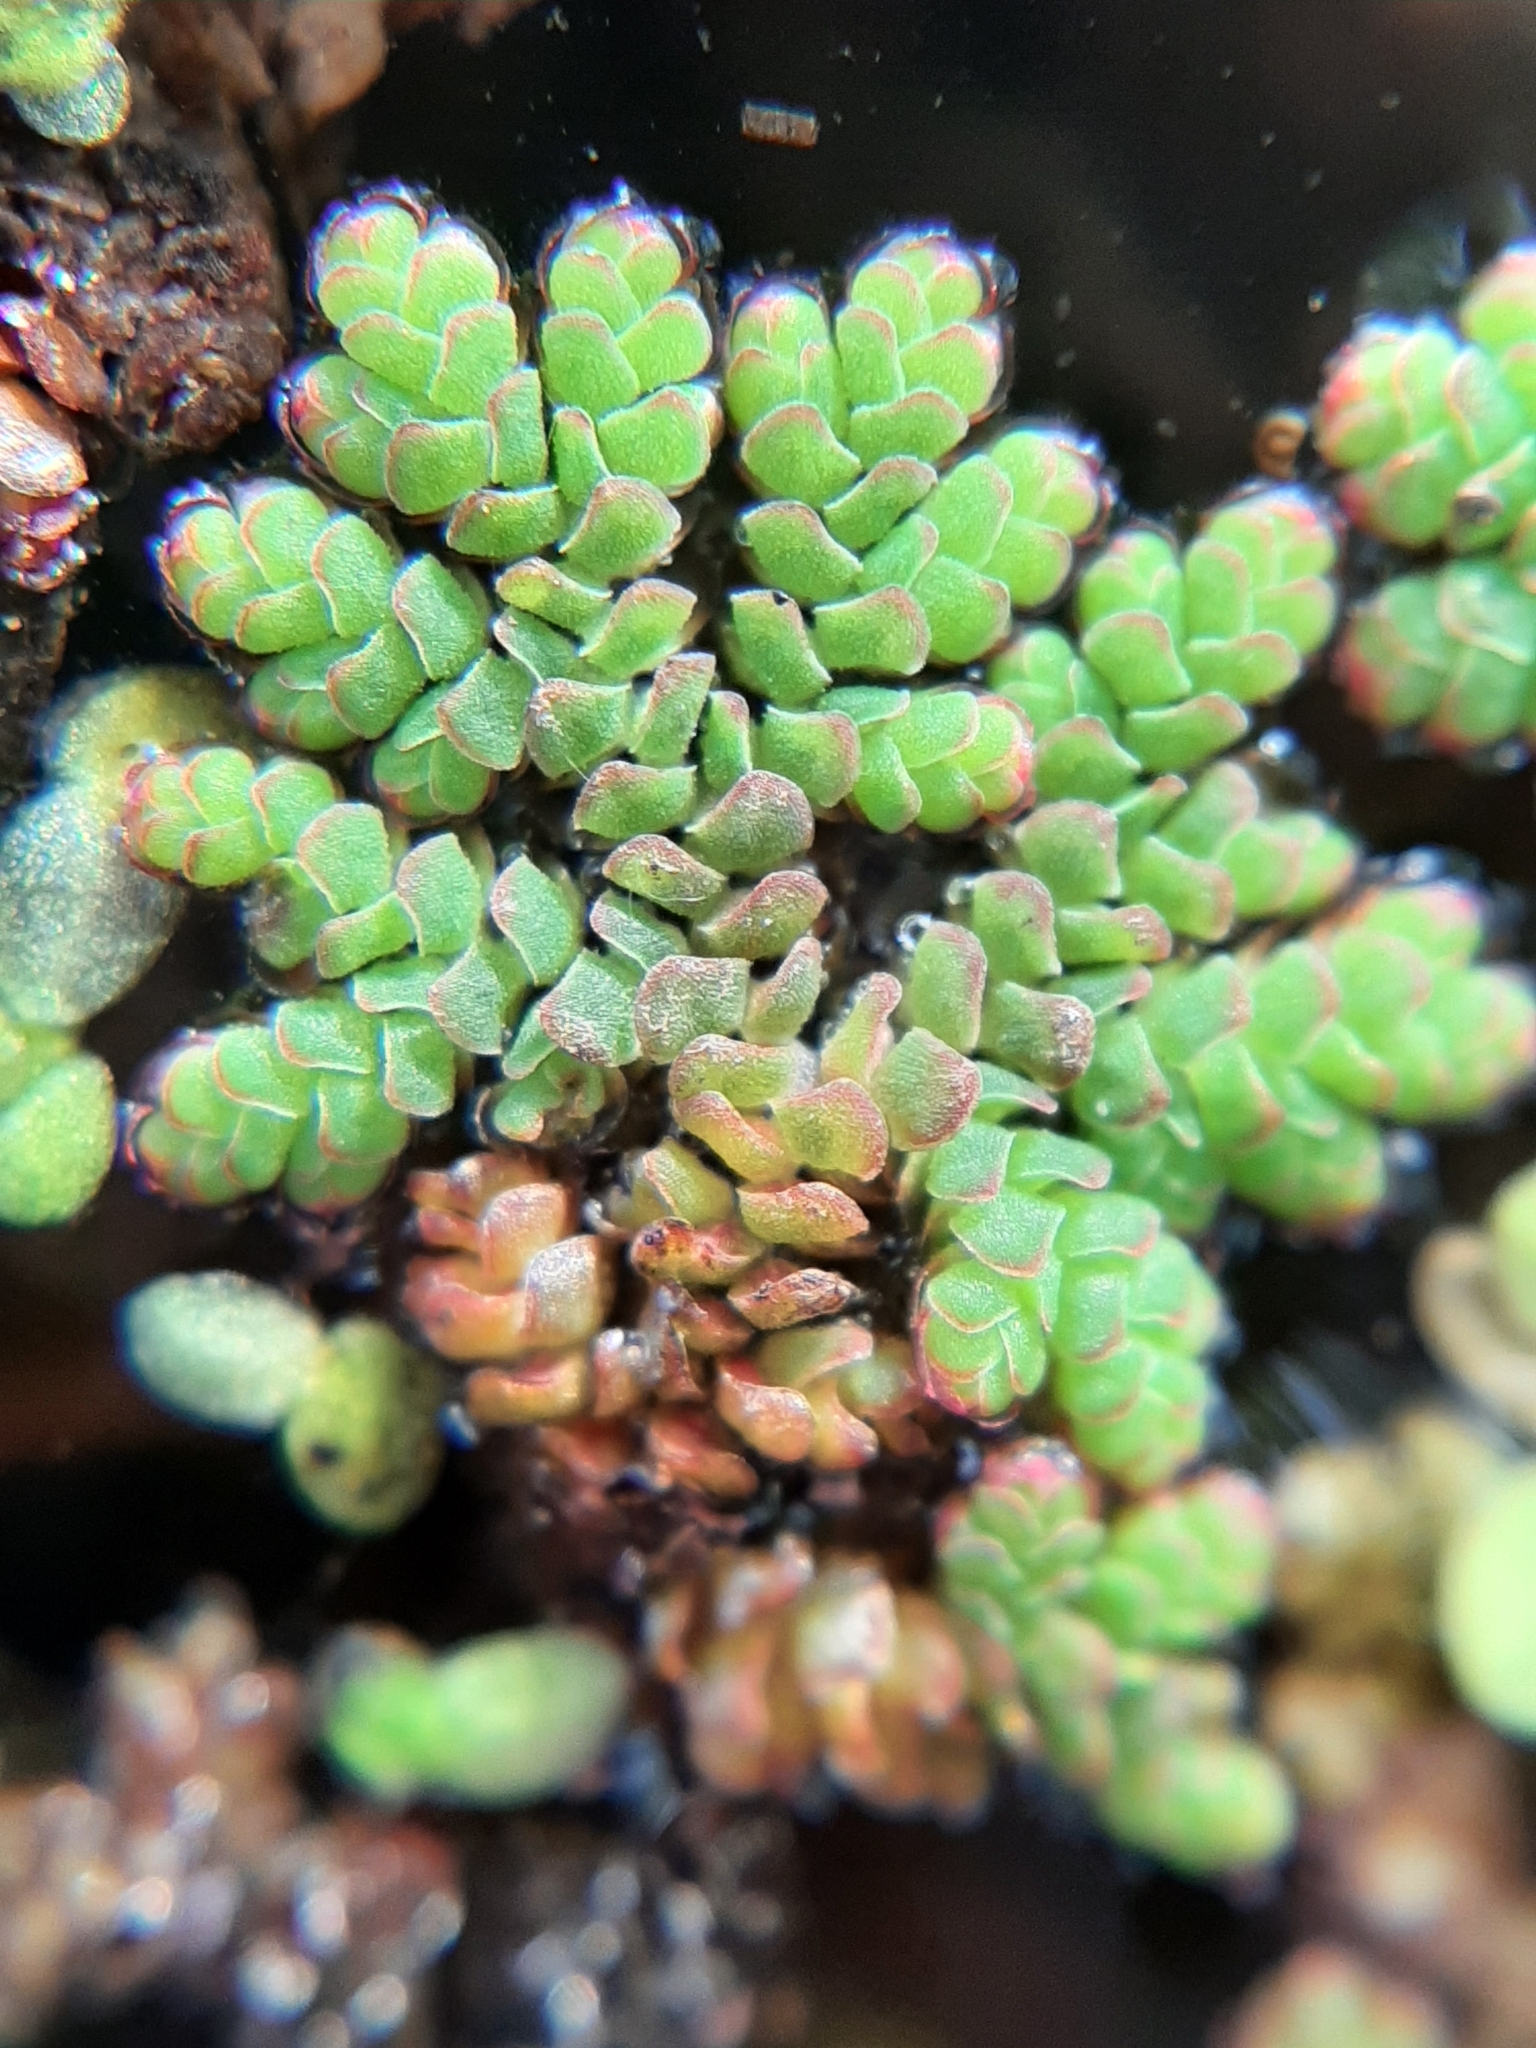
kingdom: Plantae
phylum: Tracheophyta
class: Polypodiopsida
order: Salviniales
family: Salviniaceae
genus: Azolla
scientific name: Azolla filiculoides
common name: Water fern
